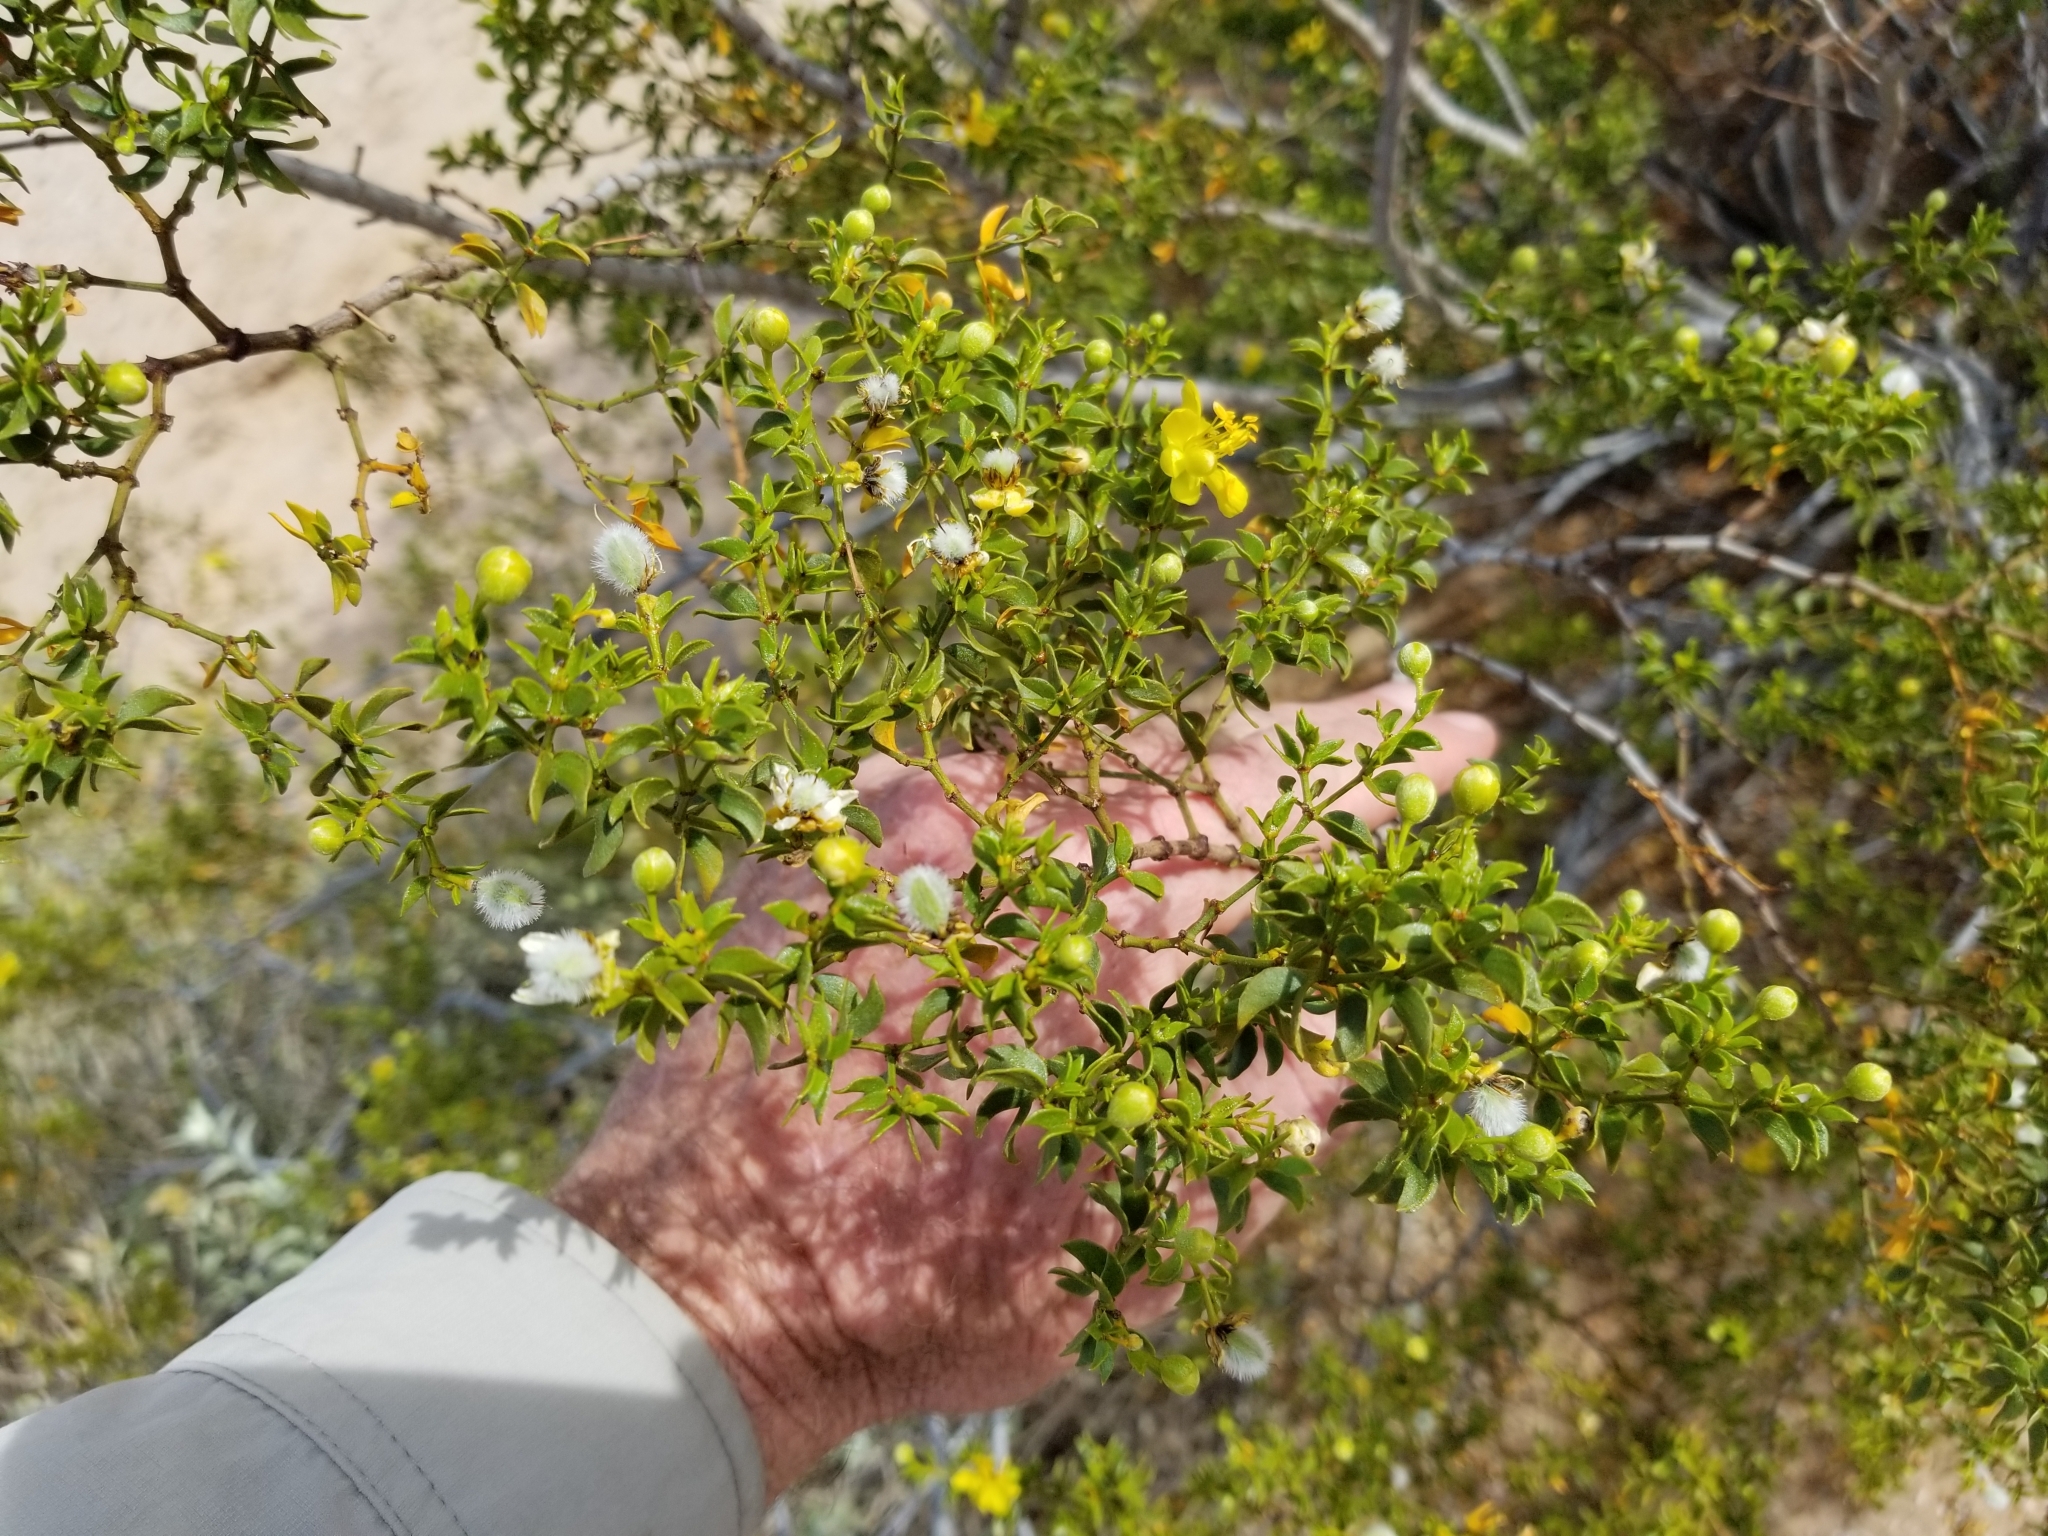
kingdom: Plantae
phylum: Tracheophyta
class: Magnoliopsida
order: Zygophyllales
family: Zygophyllaceae
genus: Larrea
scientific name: Larrea tridentata
